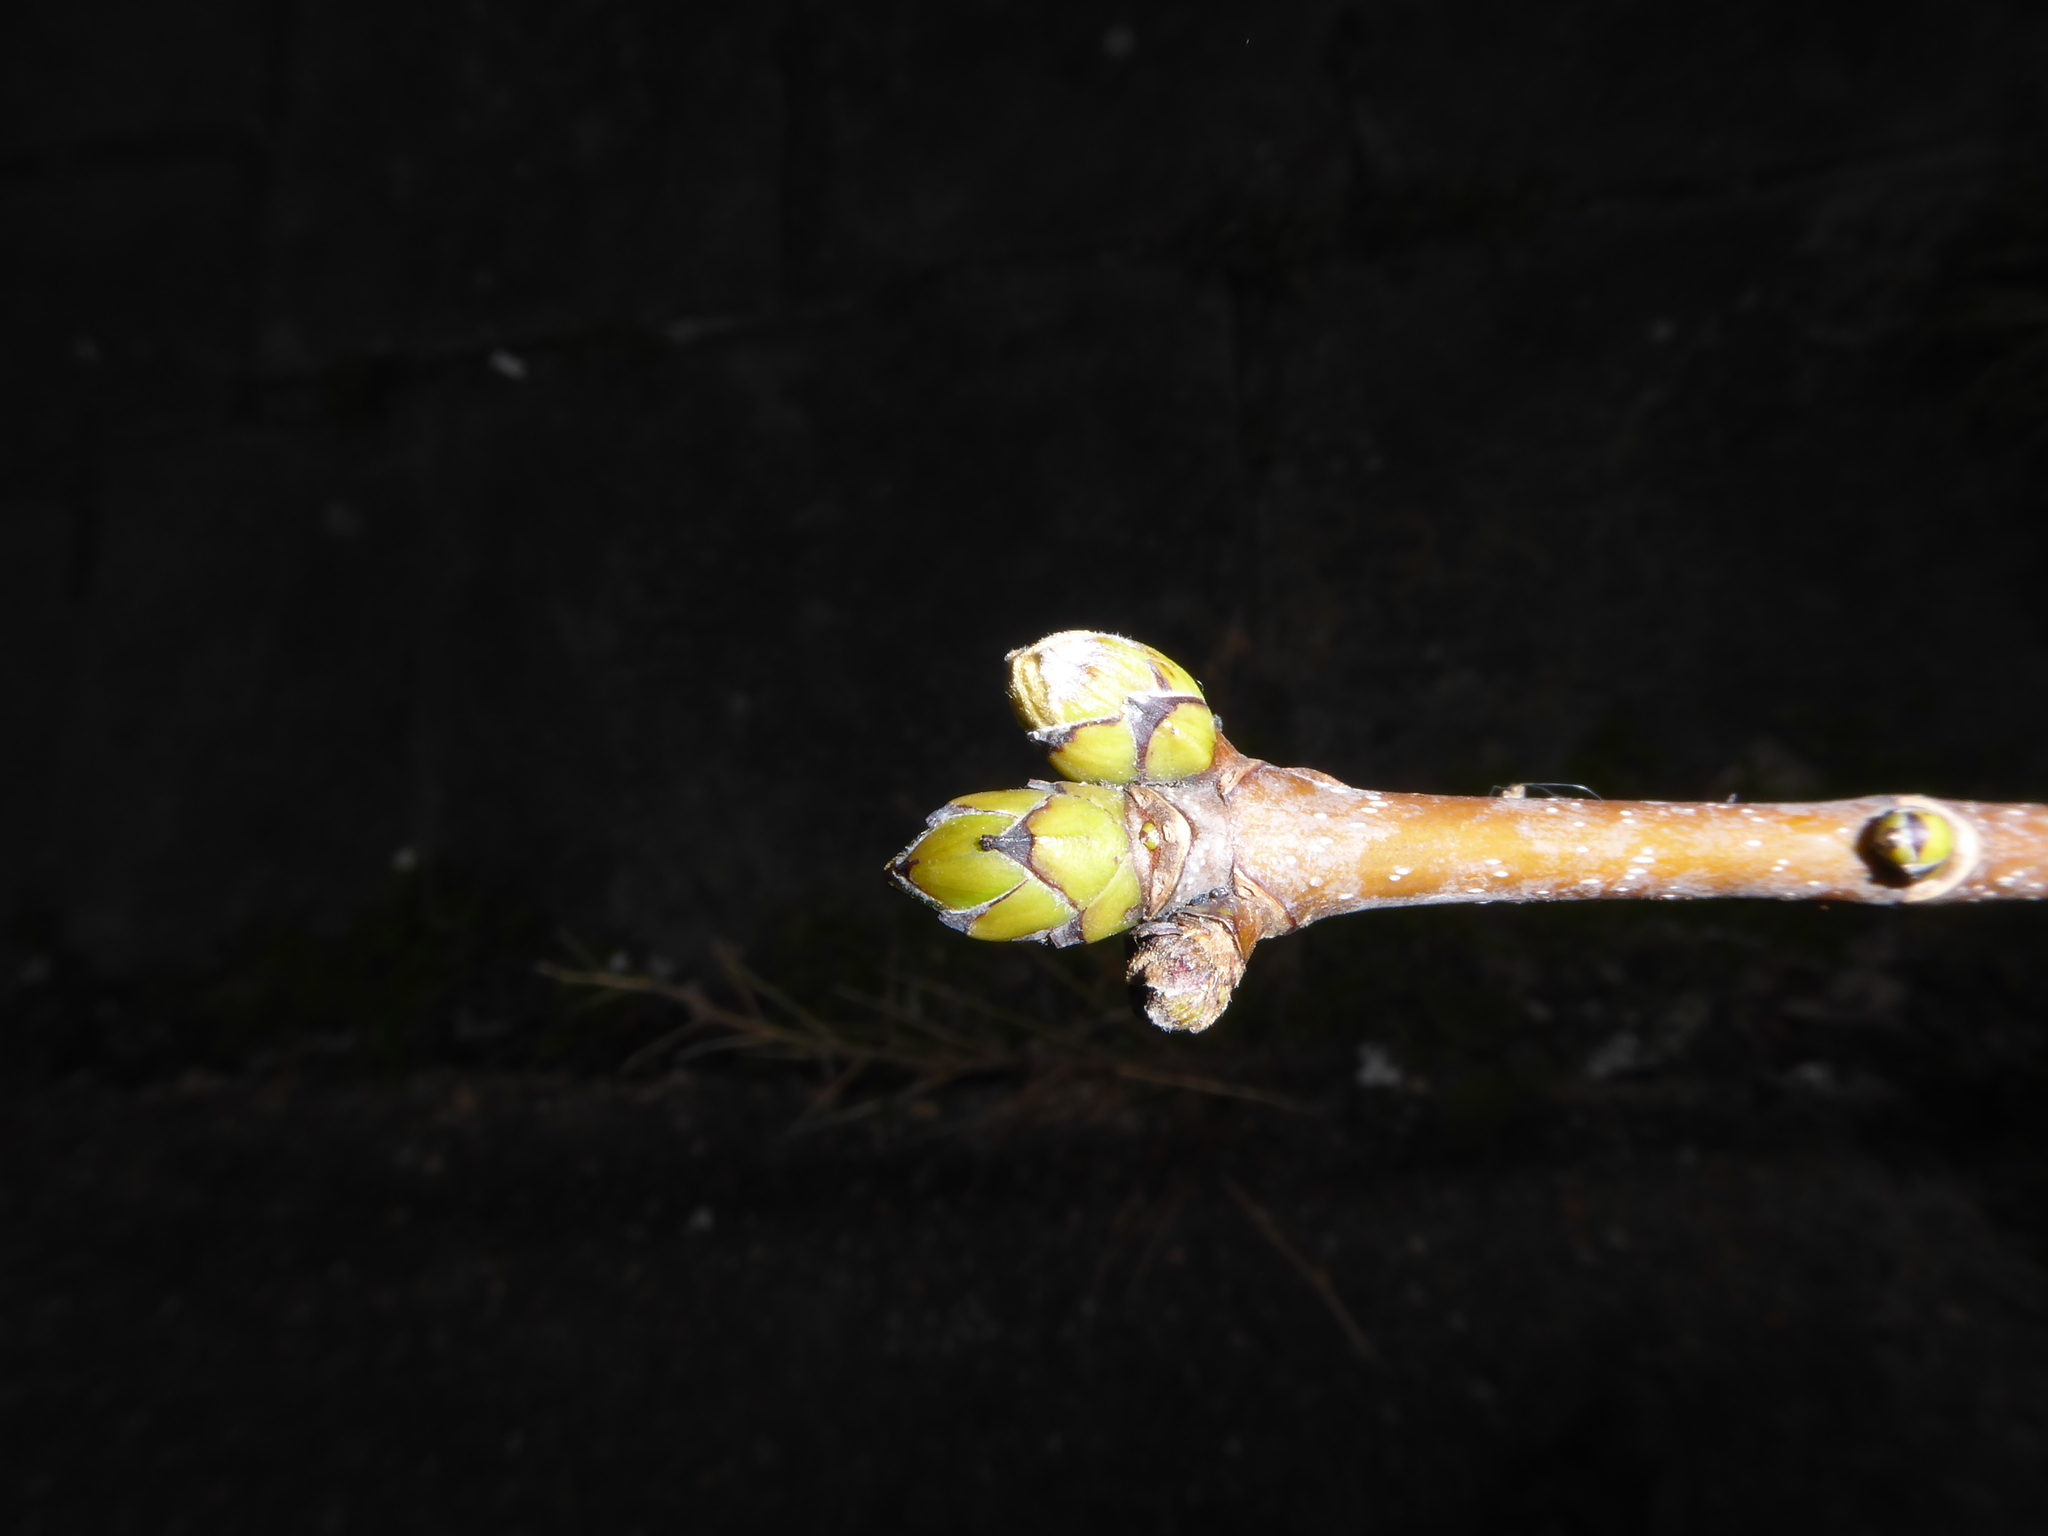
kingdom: Plantae
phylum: Tracheophyta
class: Magnoliopsida
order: Sapindales
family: Sapindaceae
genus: Acer
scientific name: Acer pseudoplatanus
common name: Sycamore
